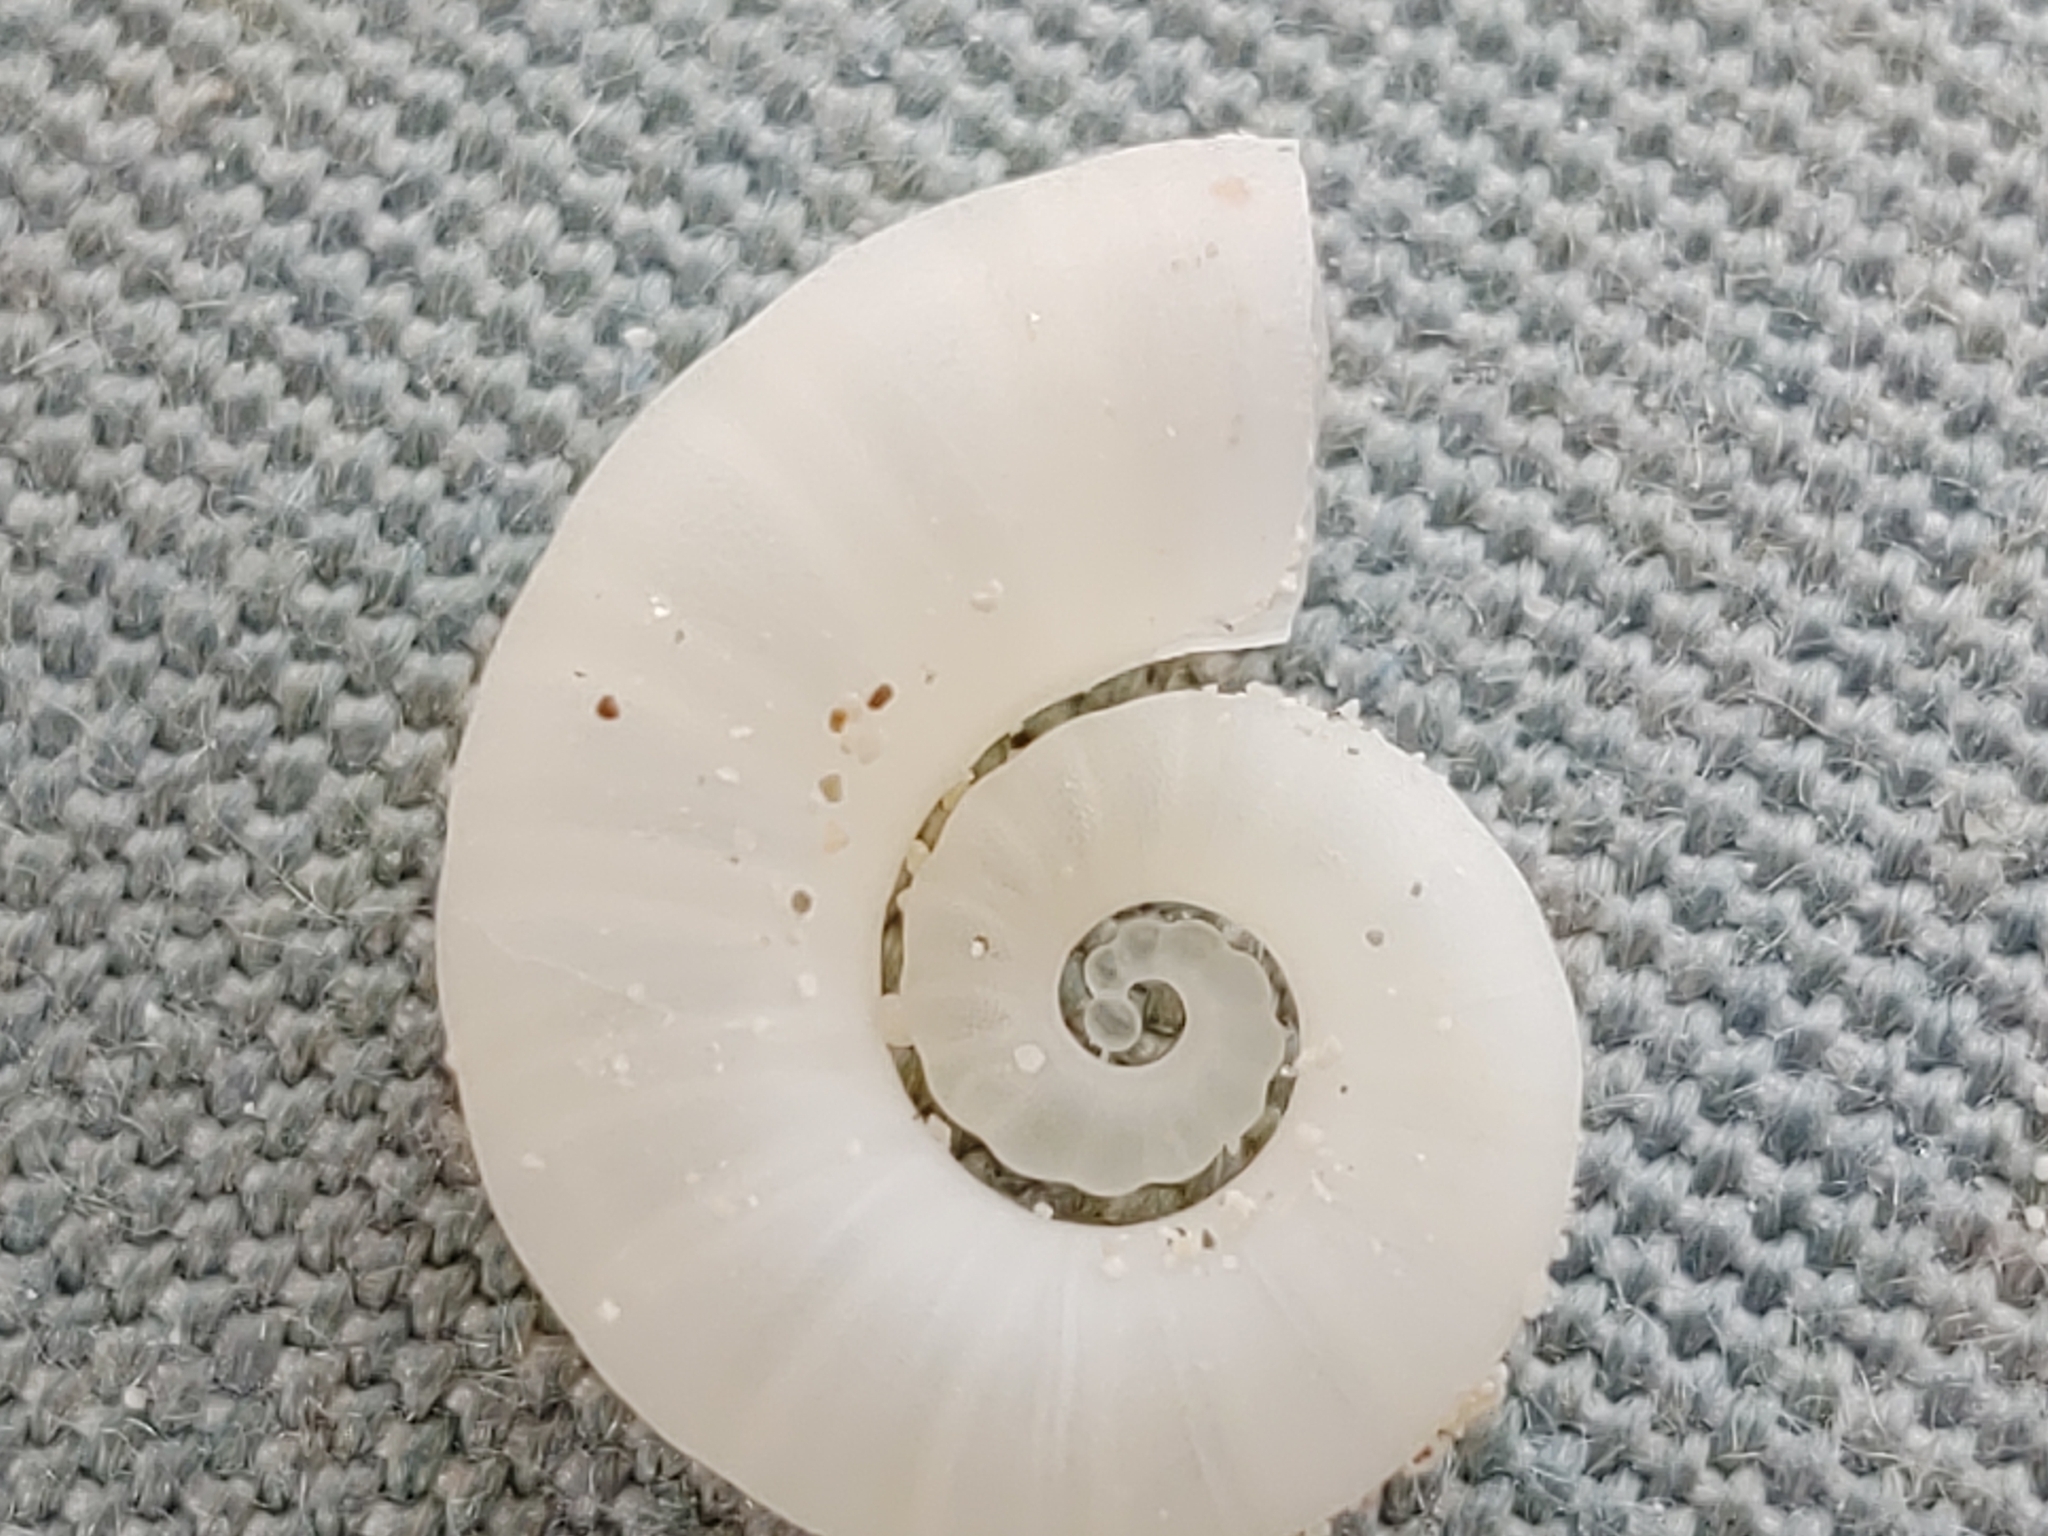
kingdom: Animalia
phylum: Mollusca
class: Cephalopoda
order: Spirulida
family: Spirulidae
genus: Spirula
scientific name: Spirula spirula
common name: Ram's horn squid
